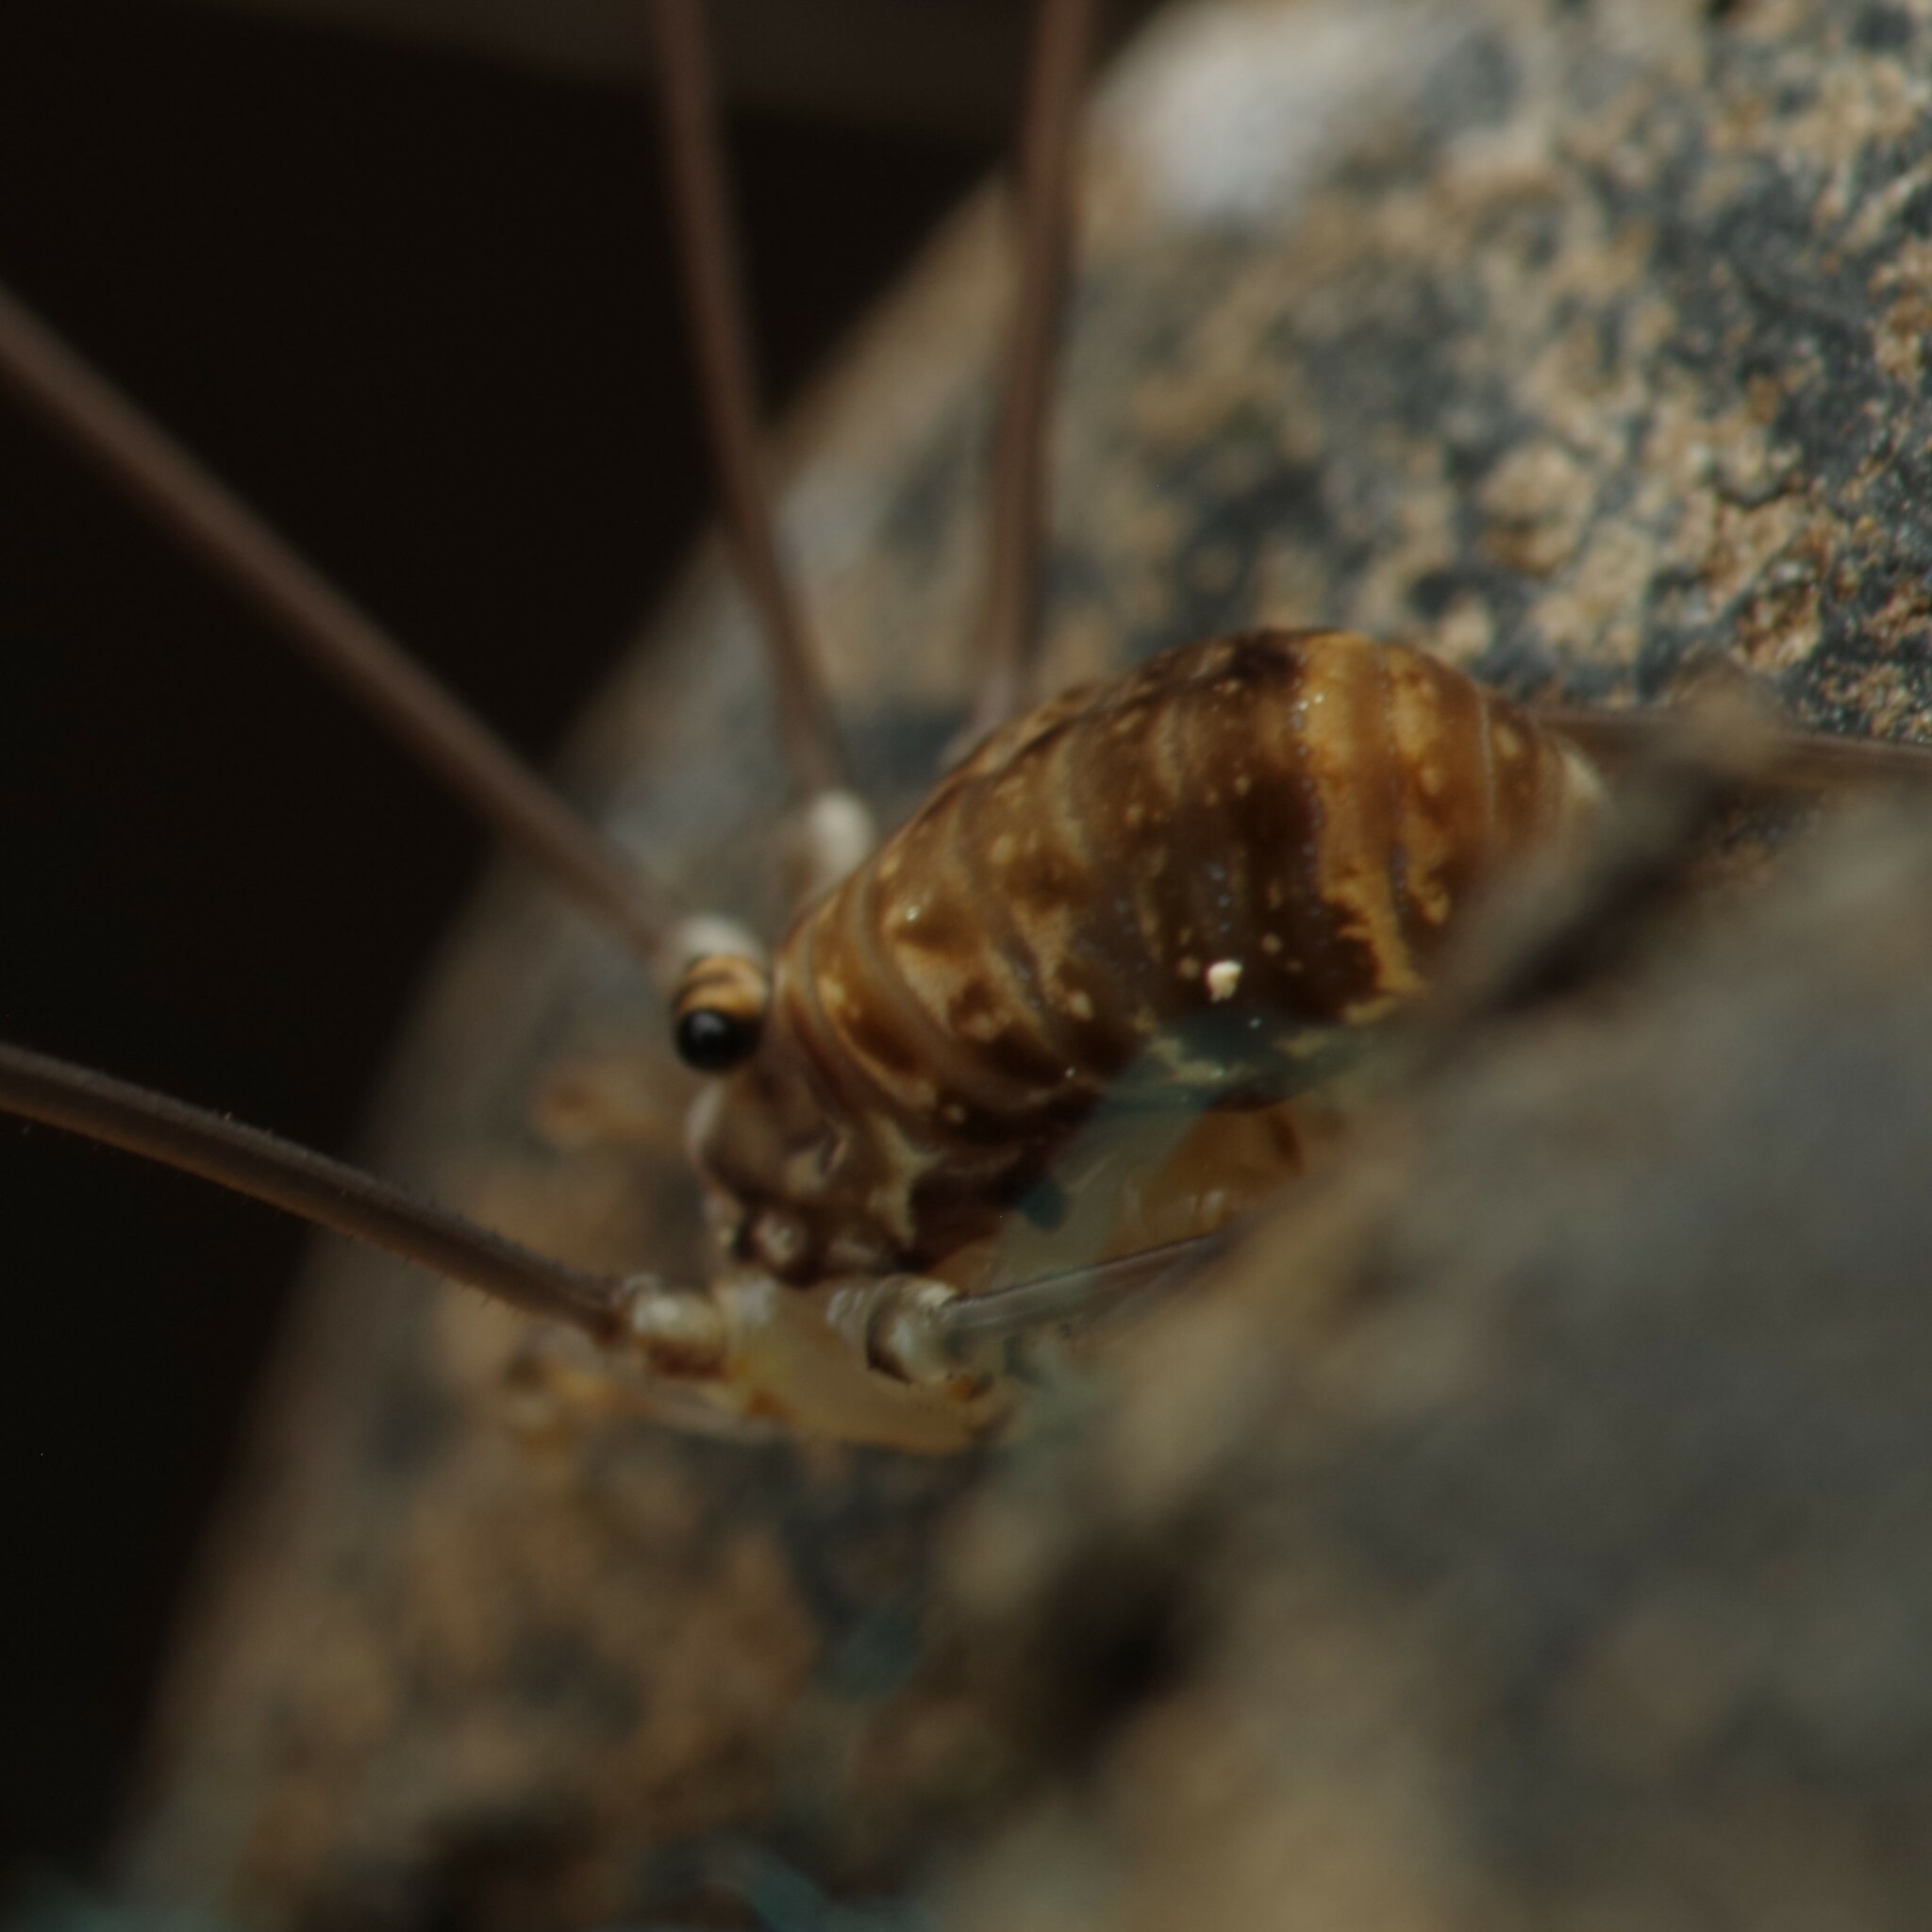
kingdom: Animalia
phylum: Arthropoda
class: Arachnida
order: Opiliones
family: Sclerosomatidae
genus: Leiobunum
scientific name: Leiobunum blackwalli
